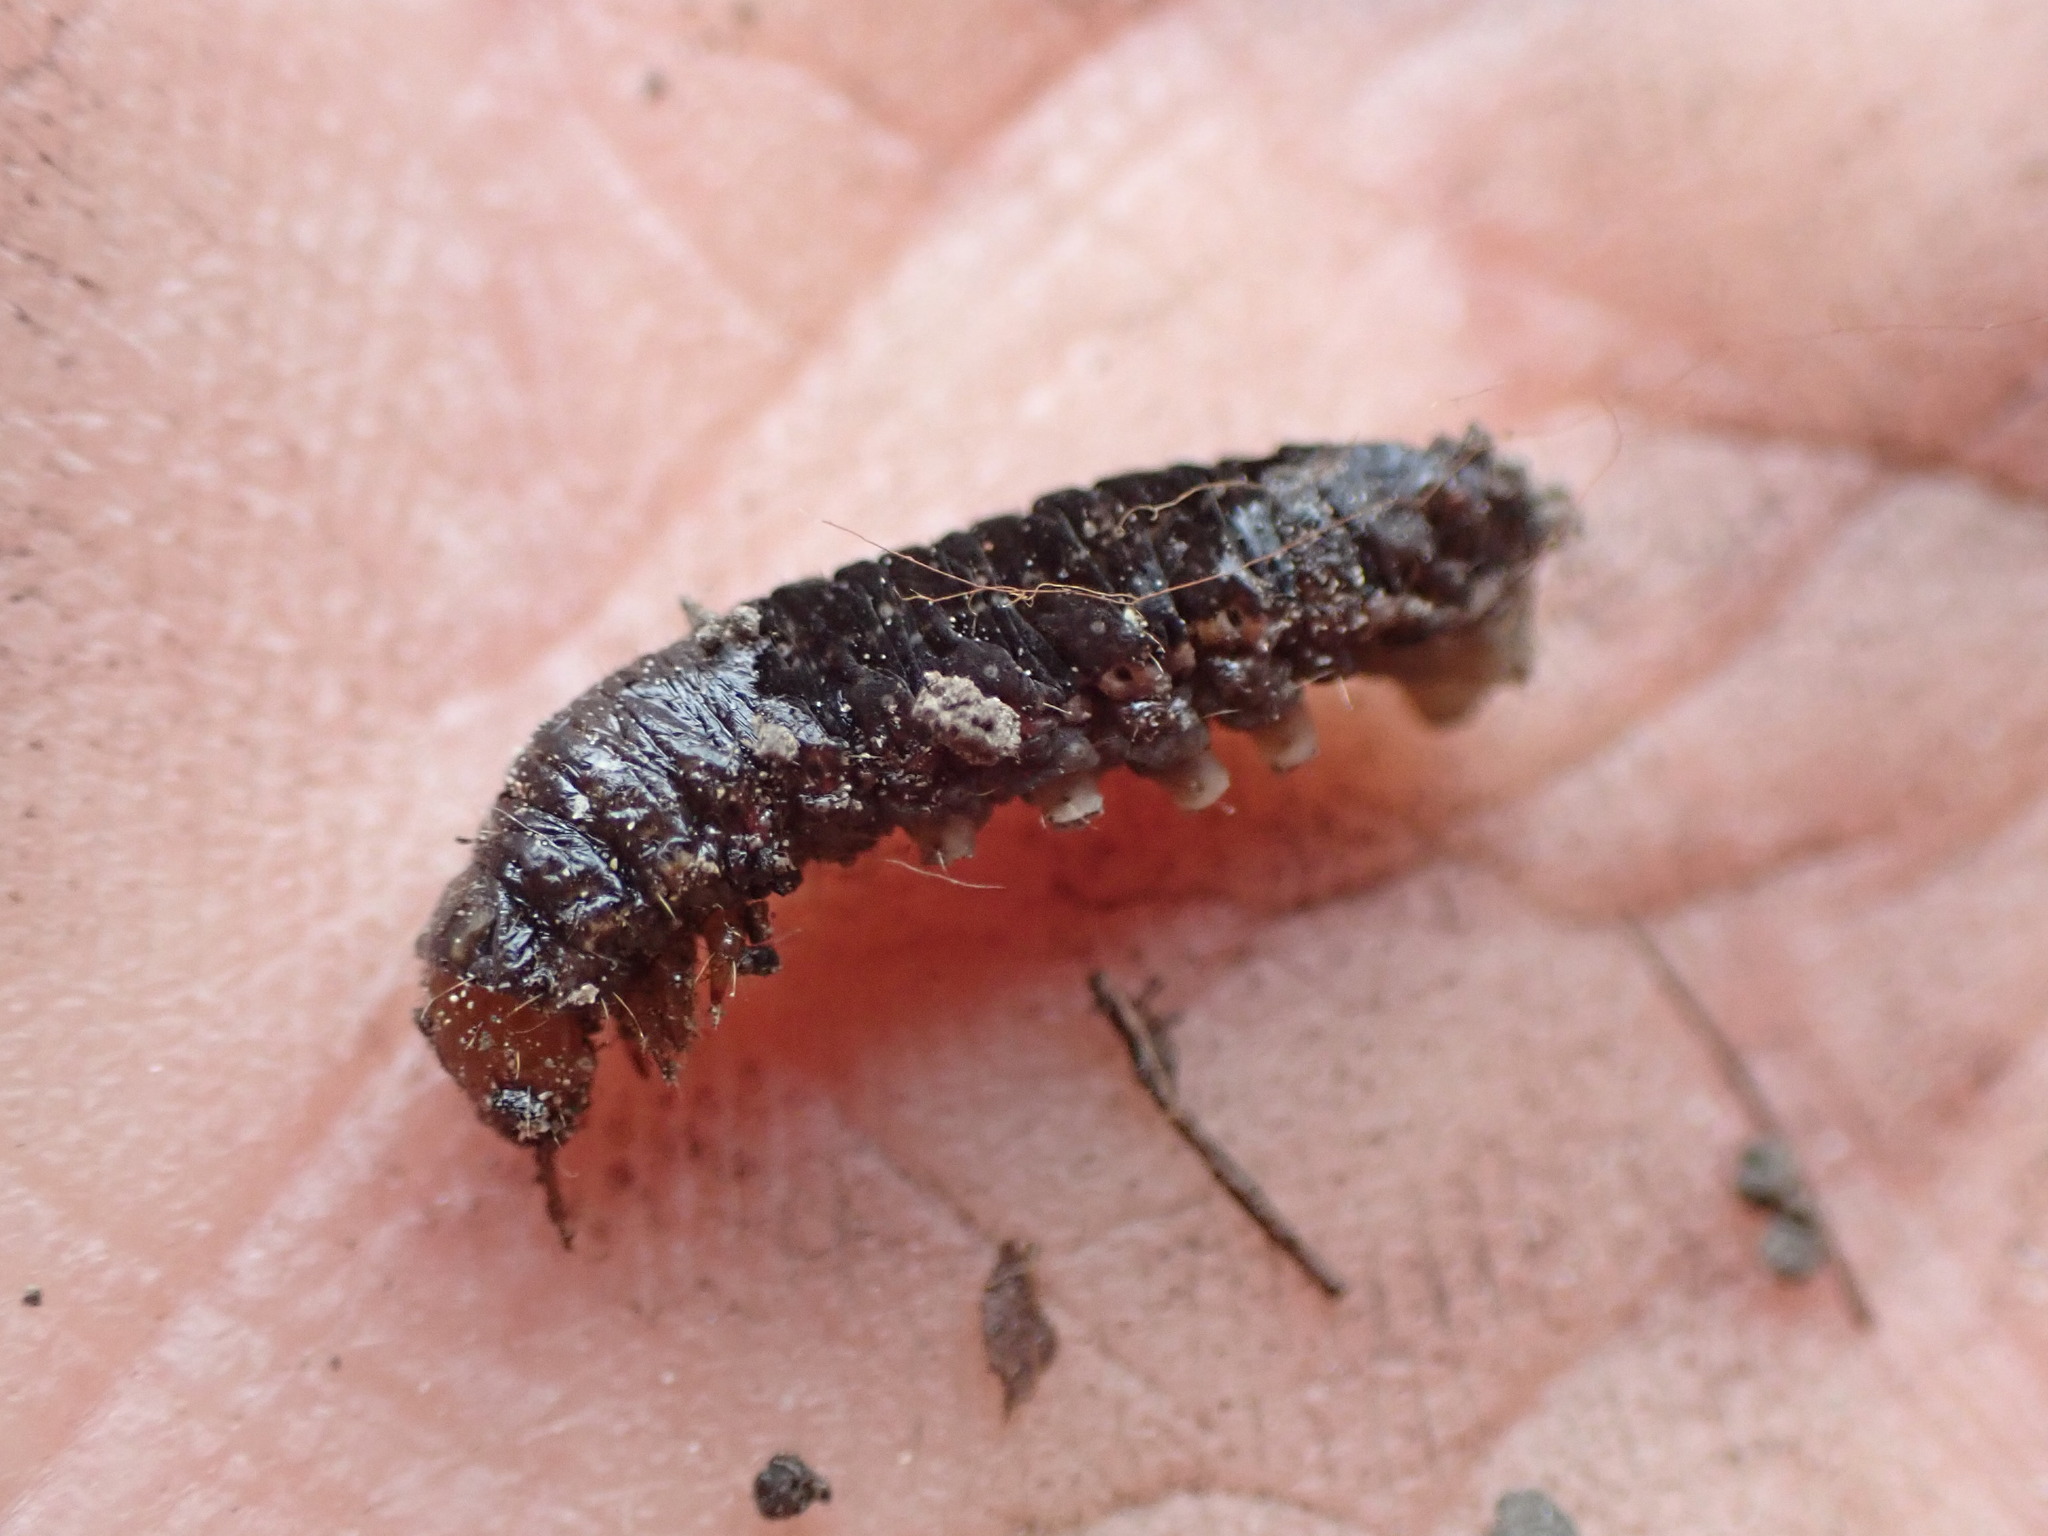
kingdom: Animalia
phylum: Arthropoda
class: Insecta
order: Lepidoptera
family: Noctuidae
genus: Agrochola
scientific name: Agrochola verberata
